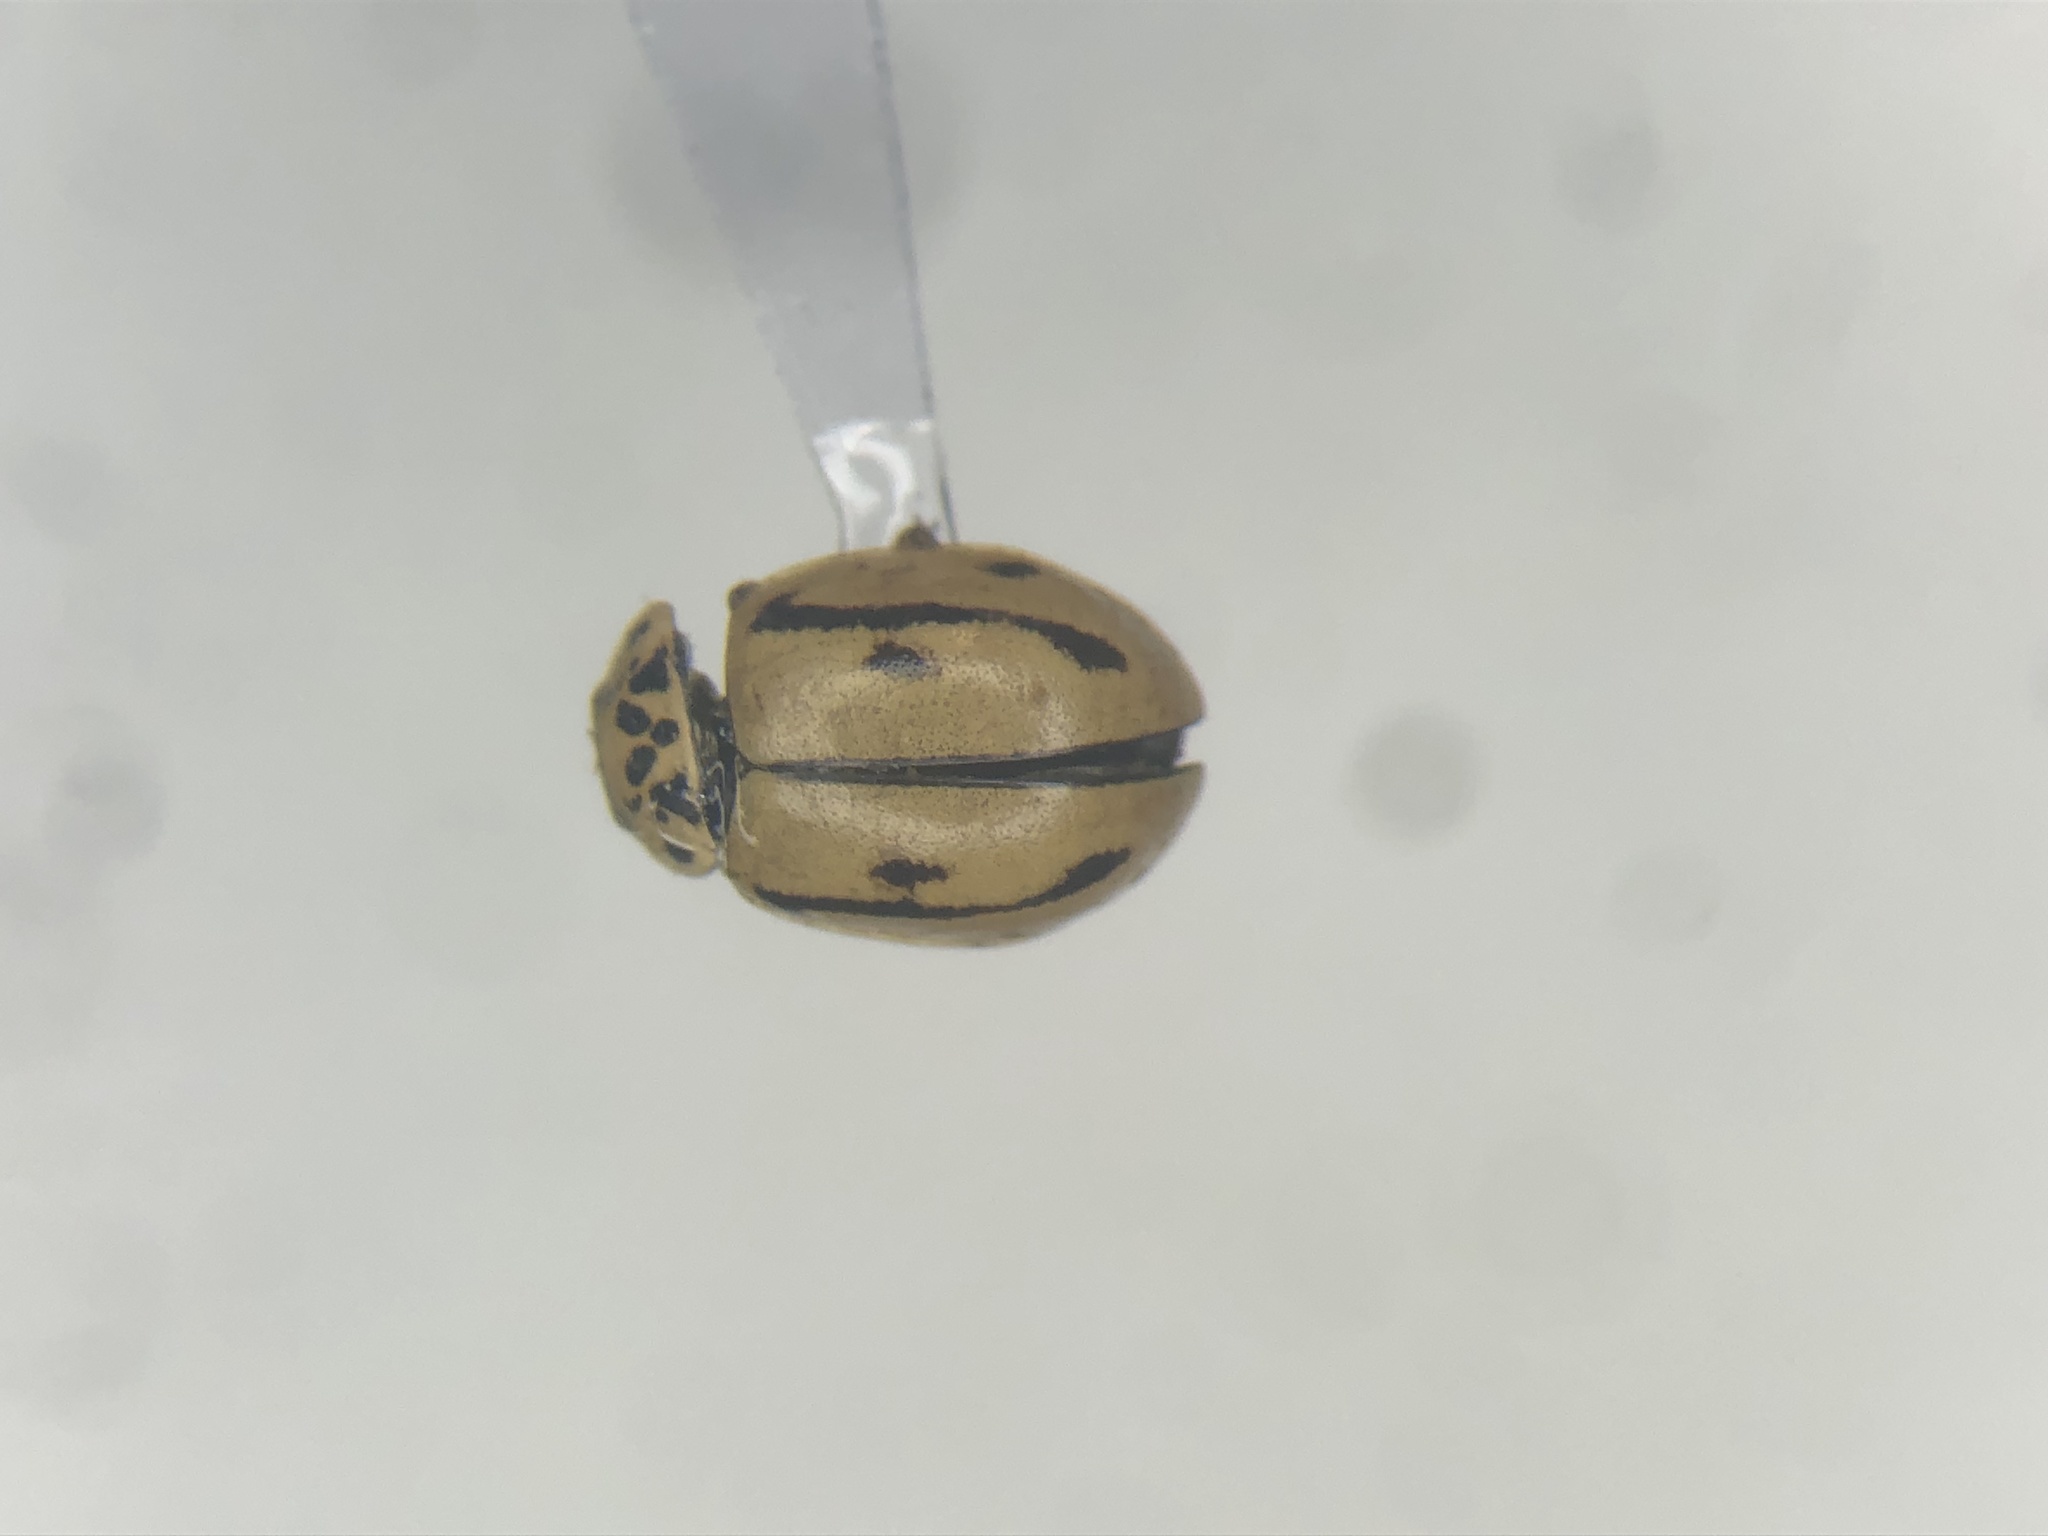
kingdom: Animalia
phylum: Arthropoda
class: Insecta
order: Coleoptera
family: Coccinellidae
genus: Mulsantina
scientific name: Mulsantina hudsonica
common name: Hudsonian ladybird
